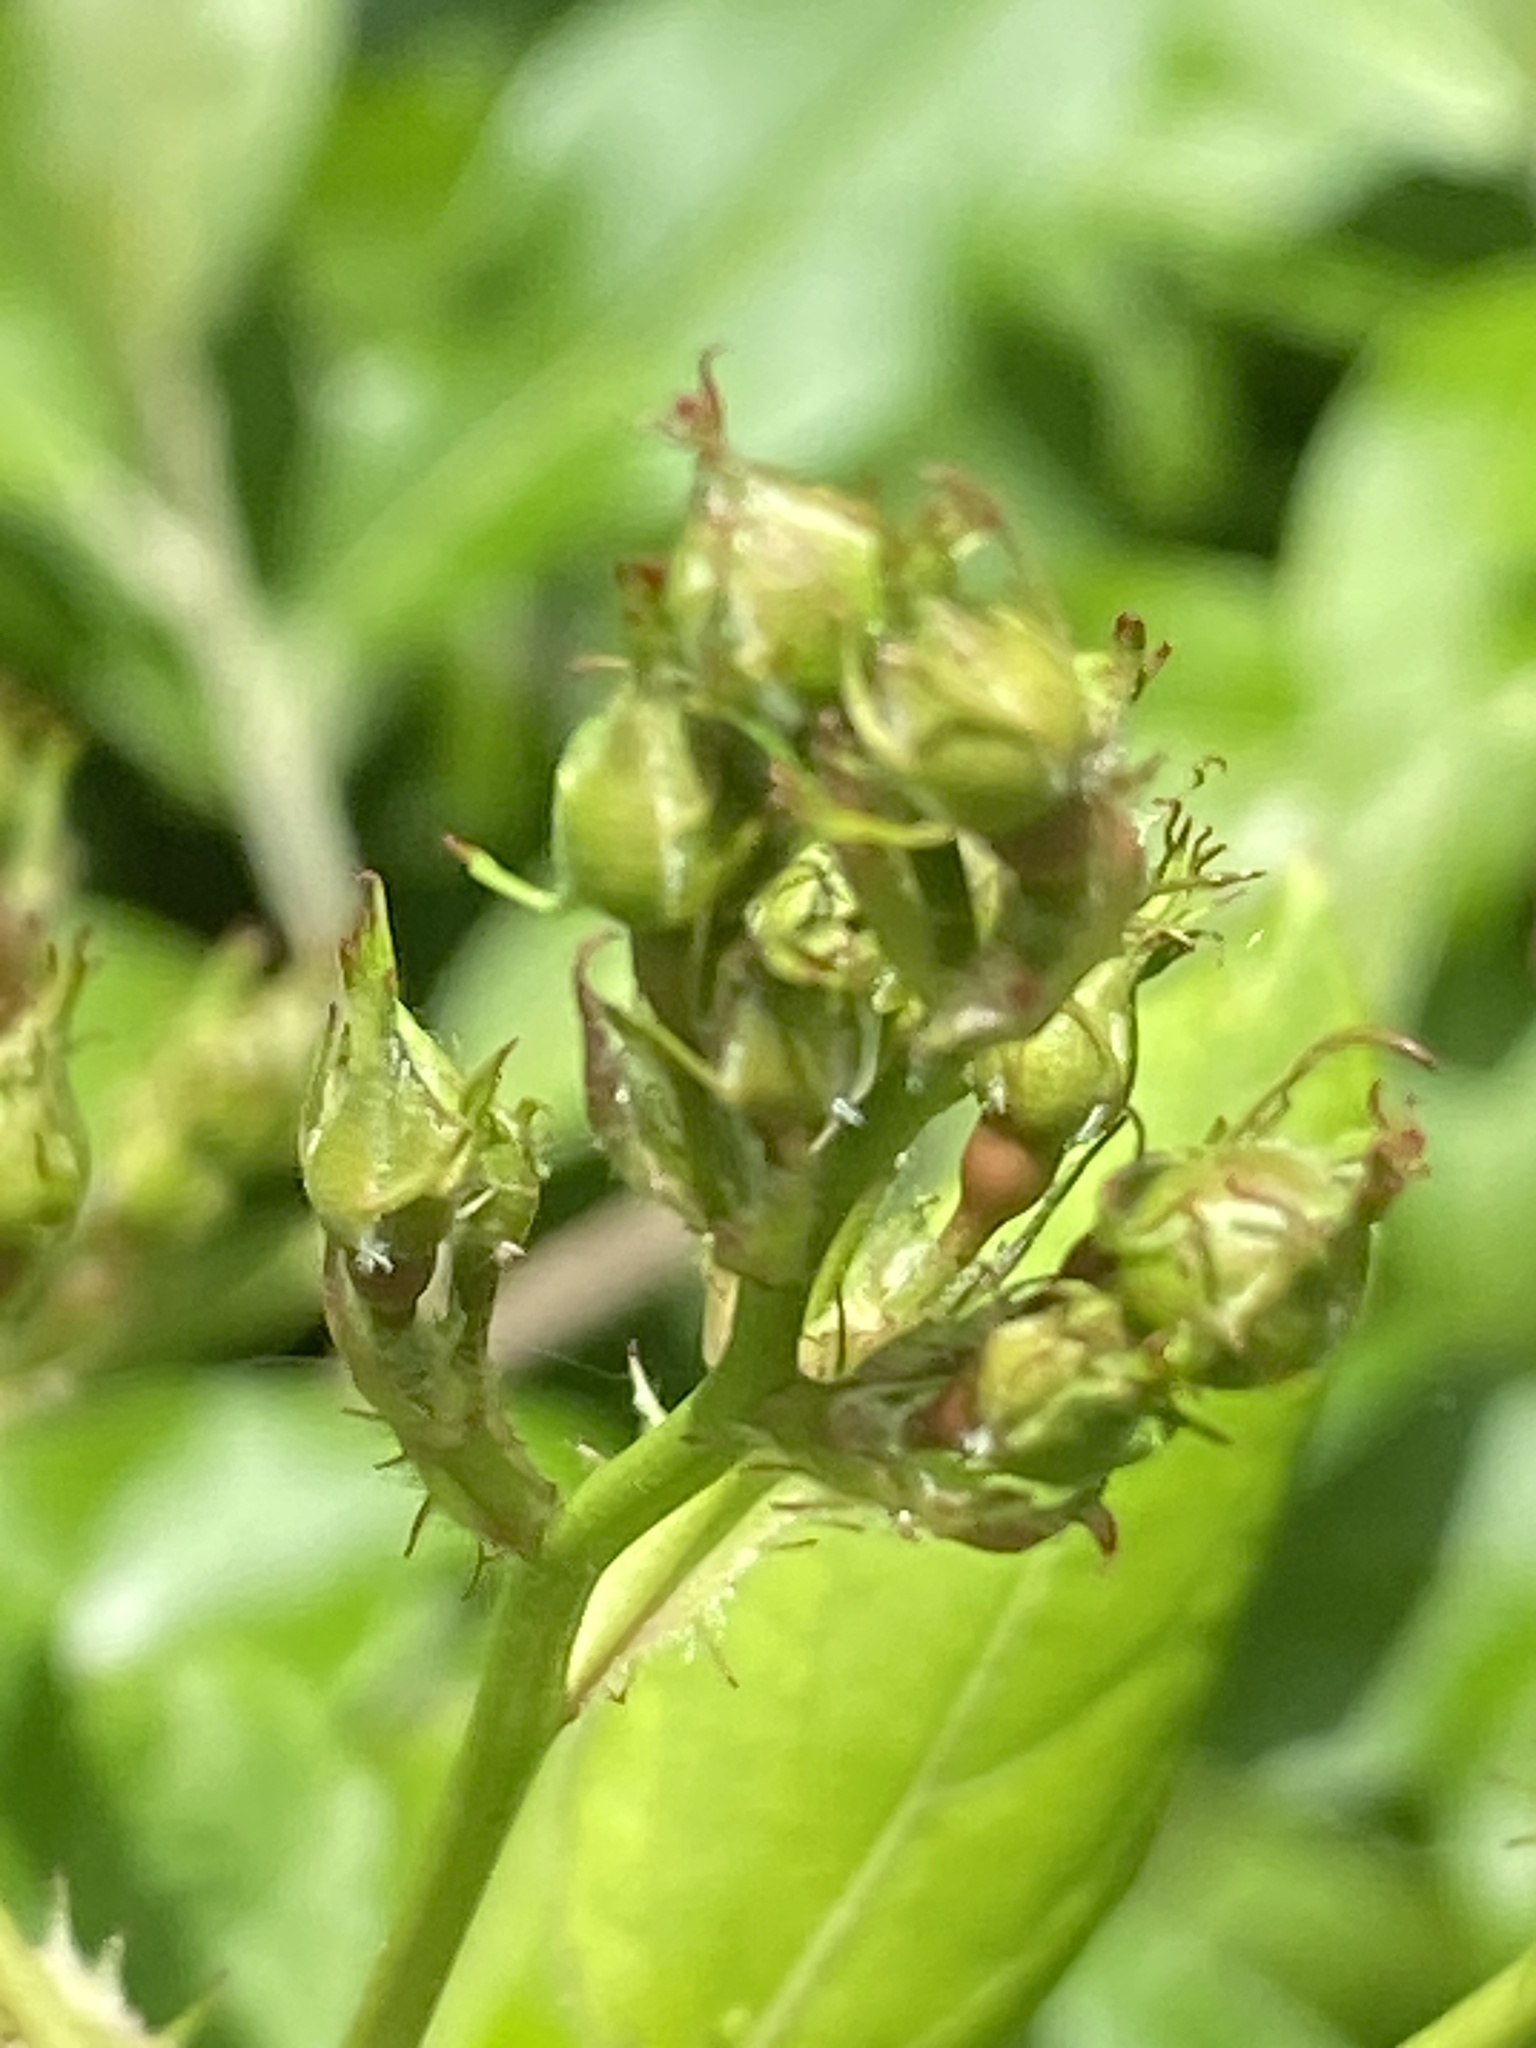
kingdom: Plantae
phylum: Tracheophyta
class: Magnoliopsida
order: Rosales
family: Rosaceae
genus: Rosa
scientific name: Rosa multiflora
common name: Multiflora rose
